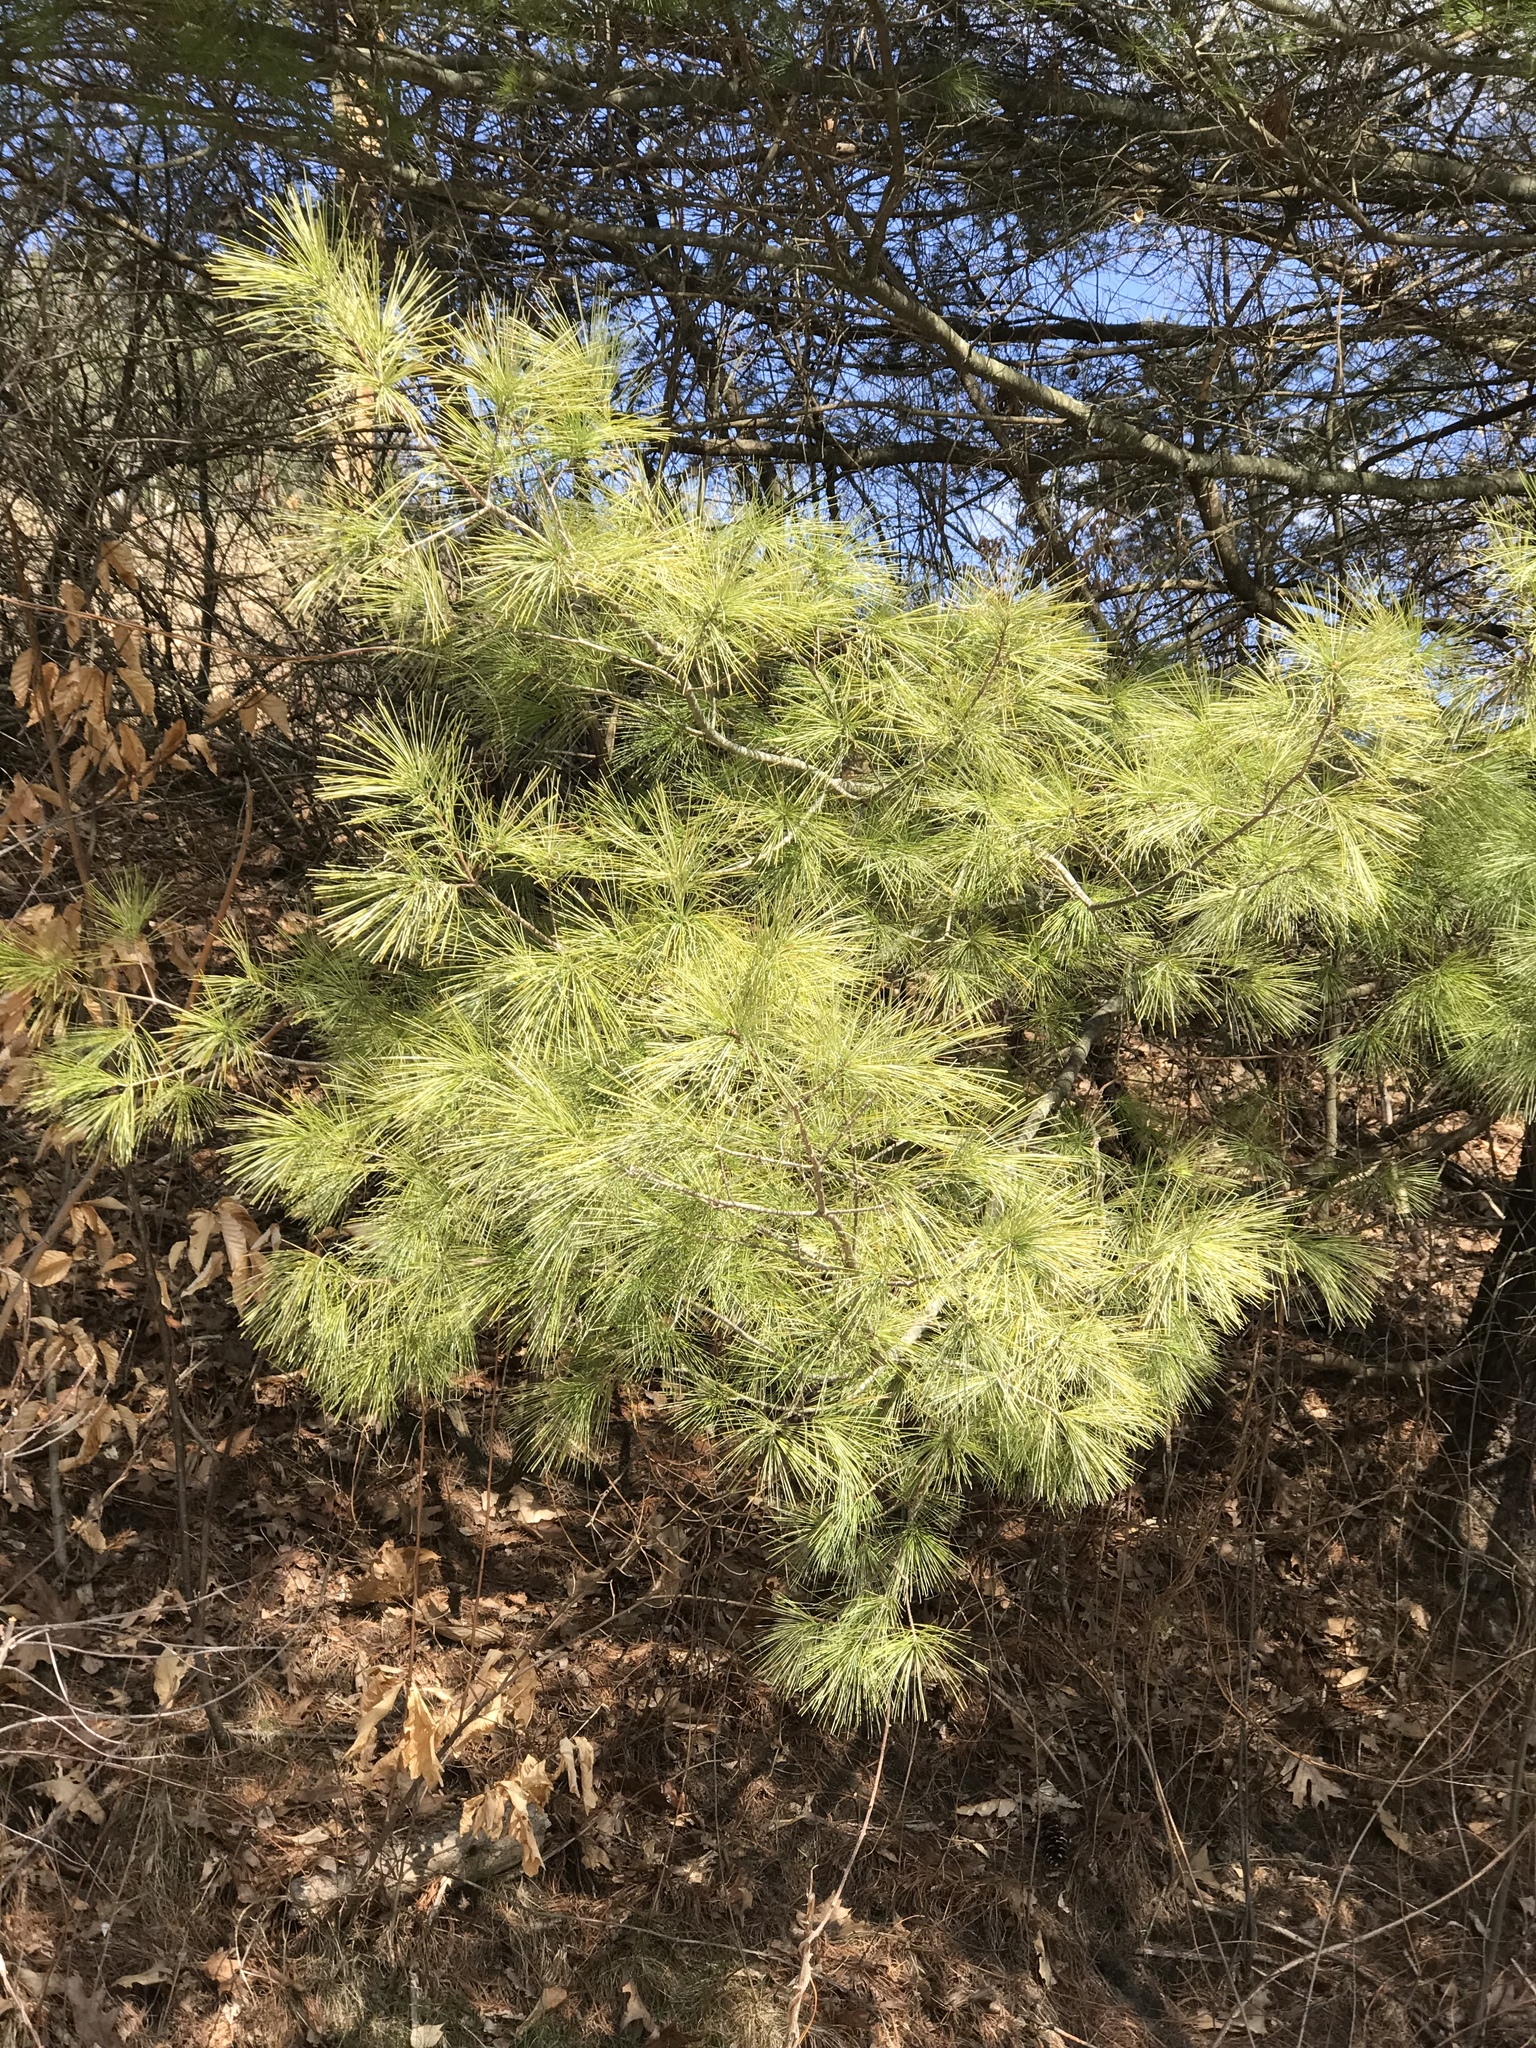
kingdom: Plantae
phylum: Tracheophyta
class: Pinopsida
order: Pinales
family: Pinaceae
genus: Pinus
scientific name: Pinus strobus
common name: Weymouth pine
